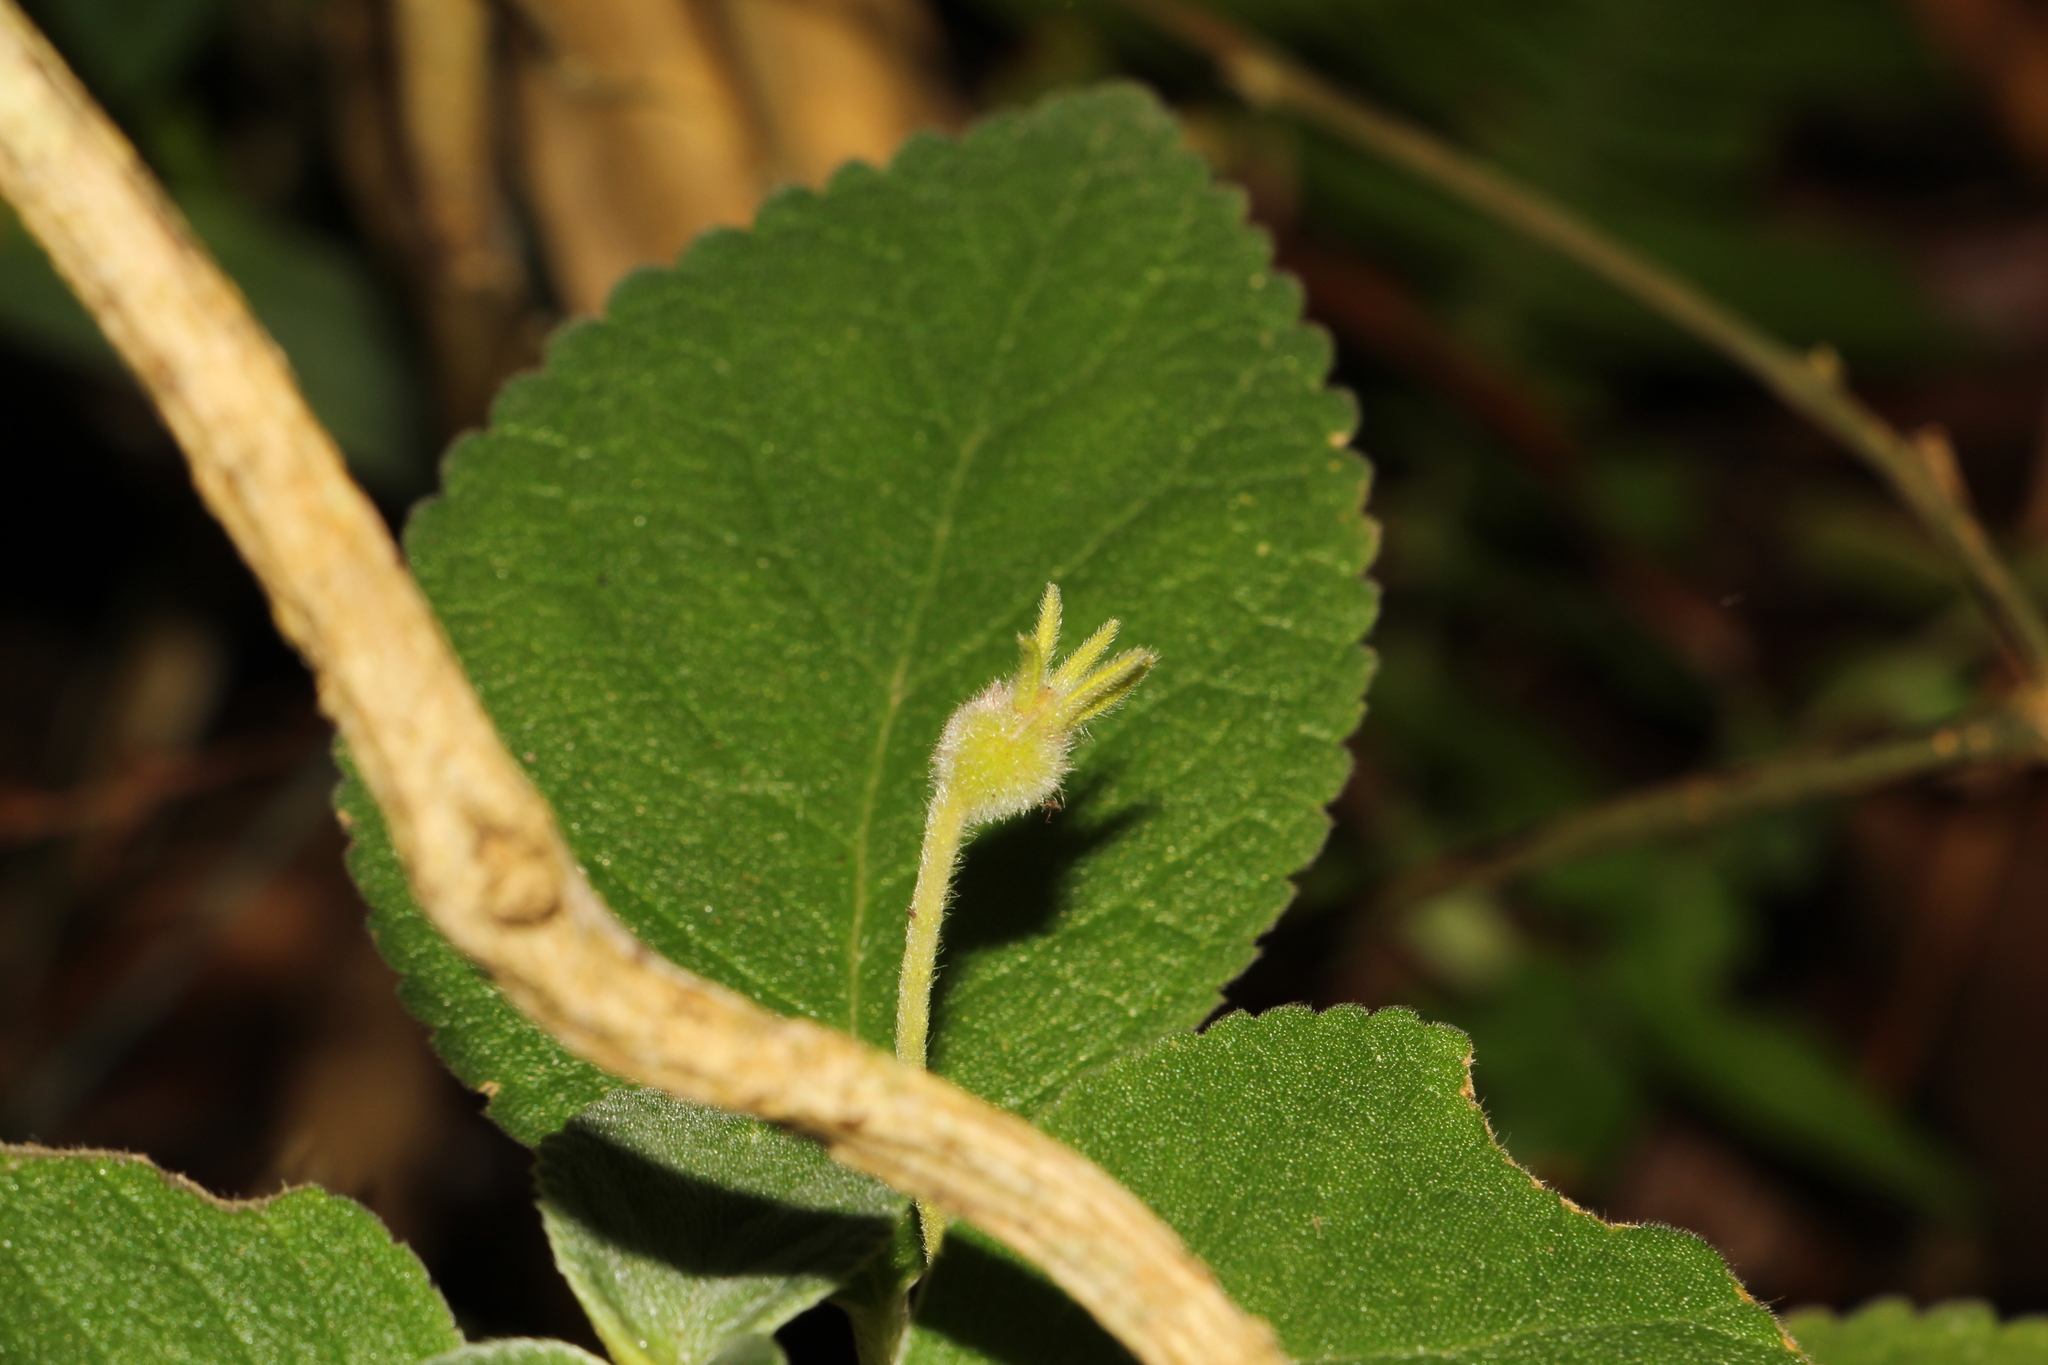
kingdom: Plantae
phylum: Tracheophyta
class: Magnoliopsida
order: Lamiales
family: Gesneriaceae
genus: Kohleria
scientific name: Kohleria hirsuta
